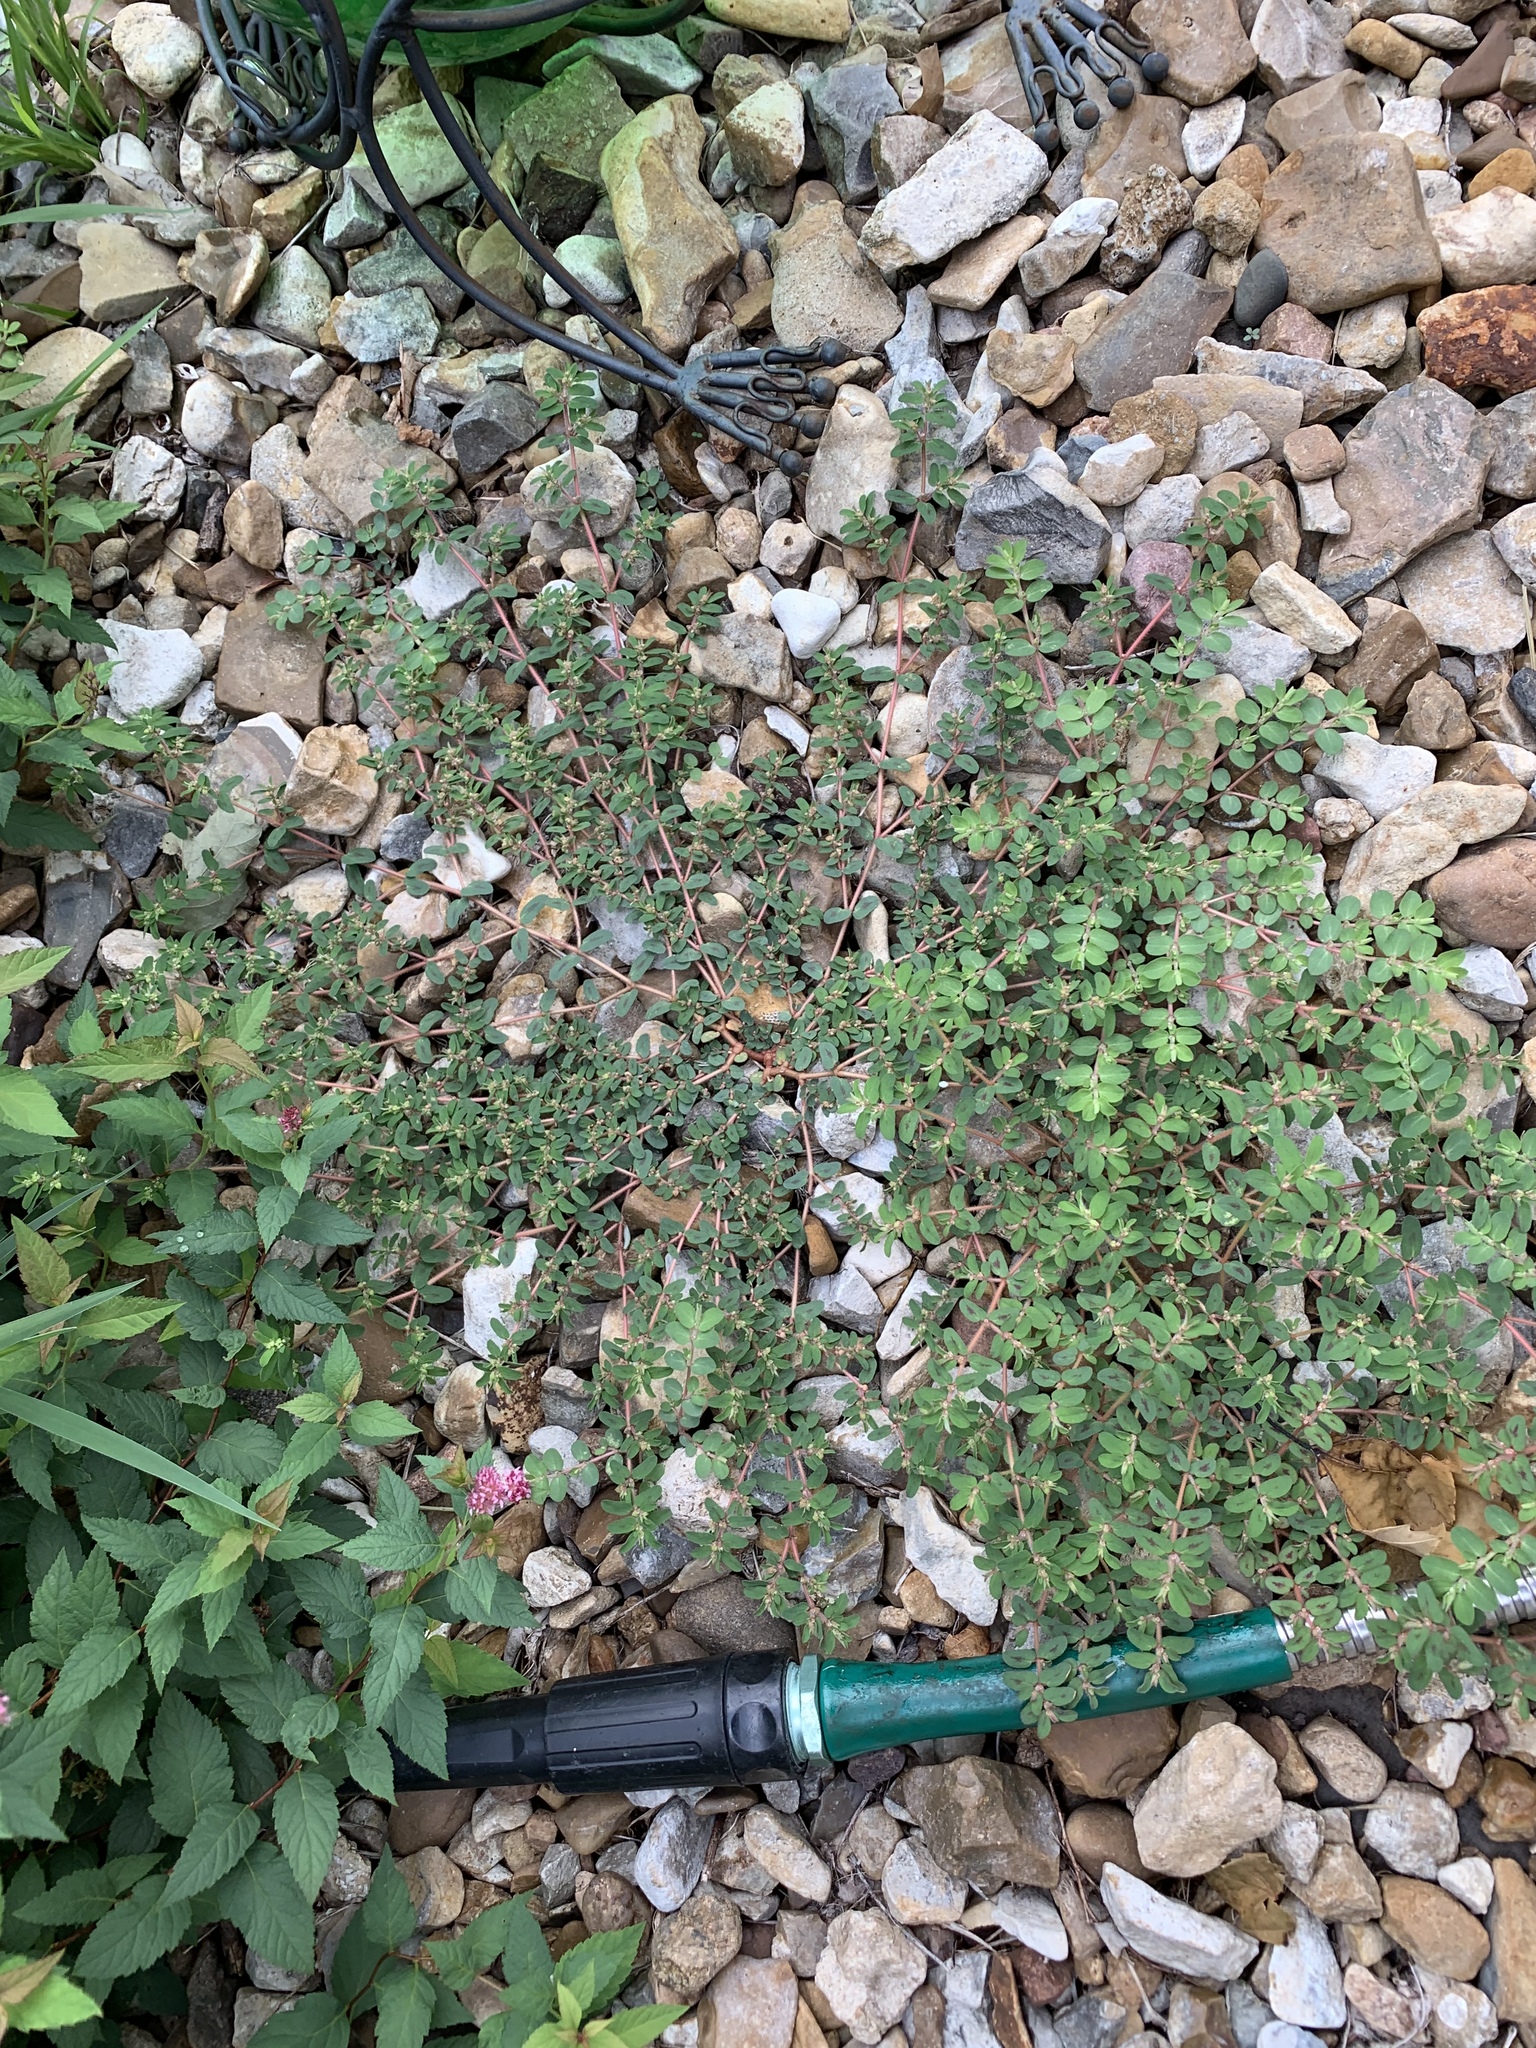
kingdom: Plantae
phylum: Tracheophyta
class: Magnoliopsida
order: Malpighiales
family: Euphorbiaceae
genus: Euphorbia
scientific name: Euphorbia maculata
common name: Spotted spurge
